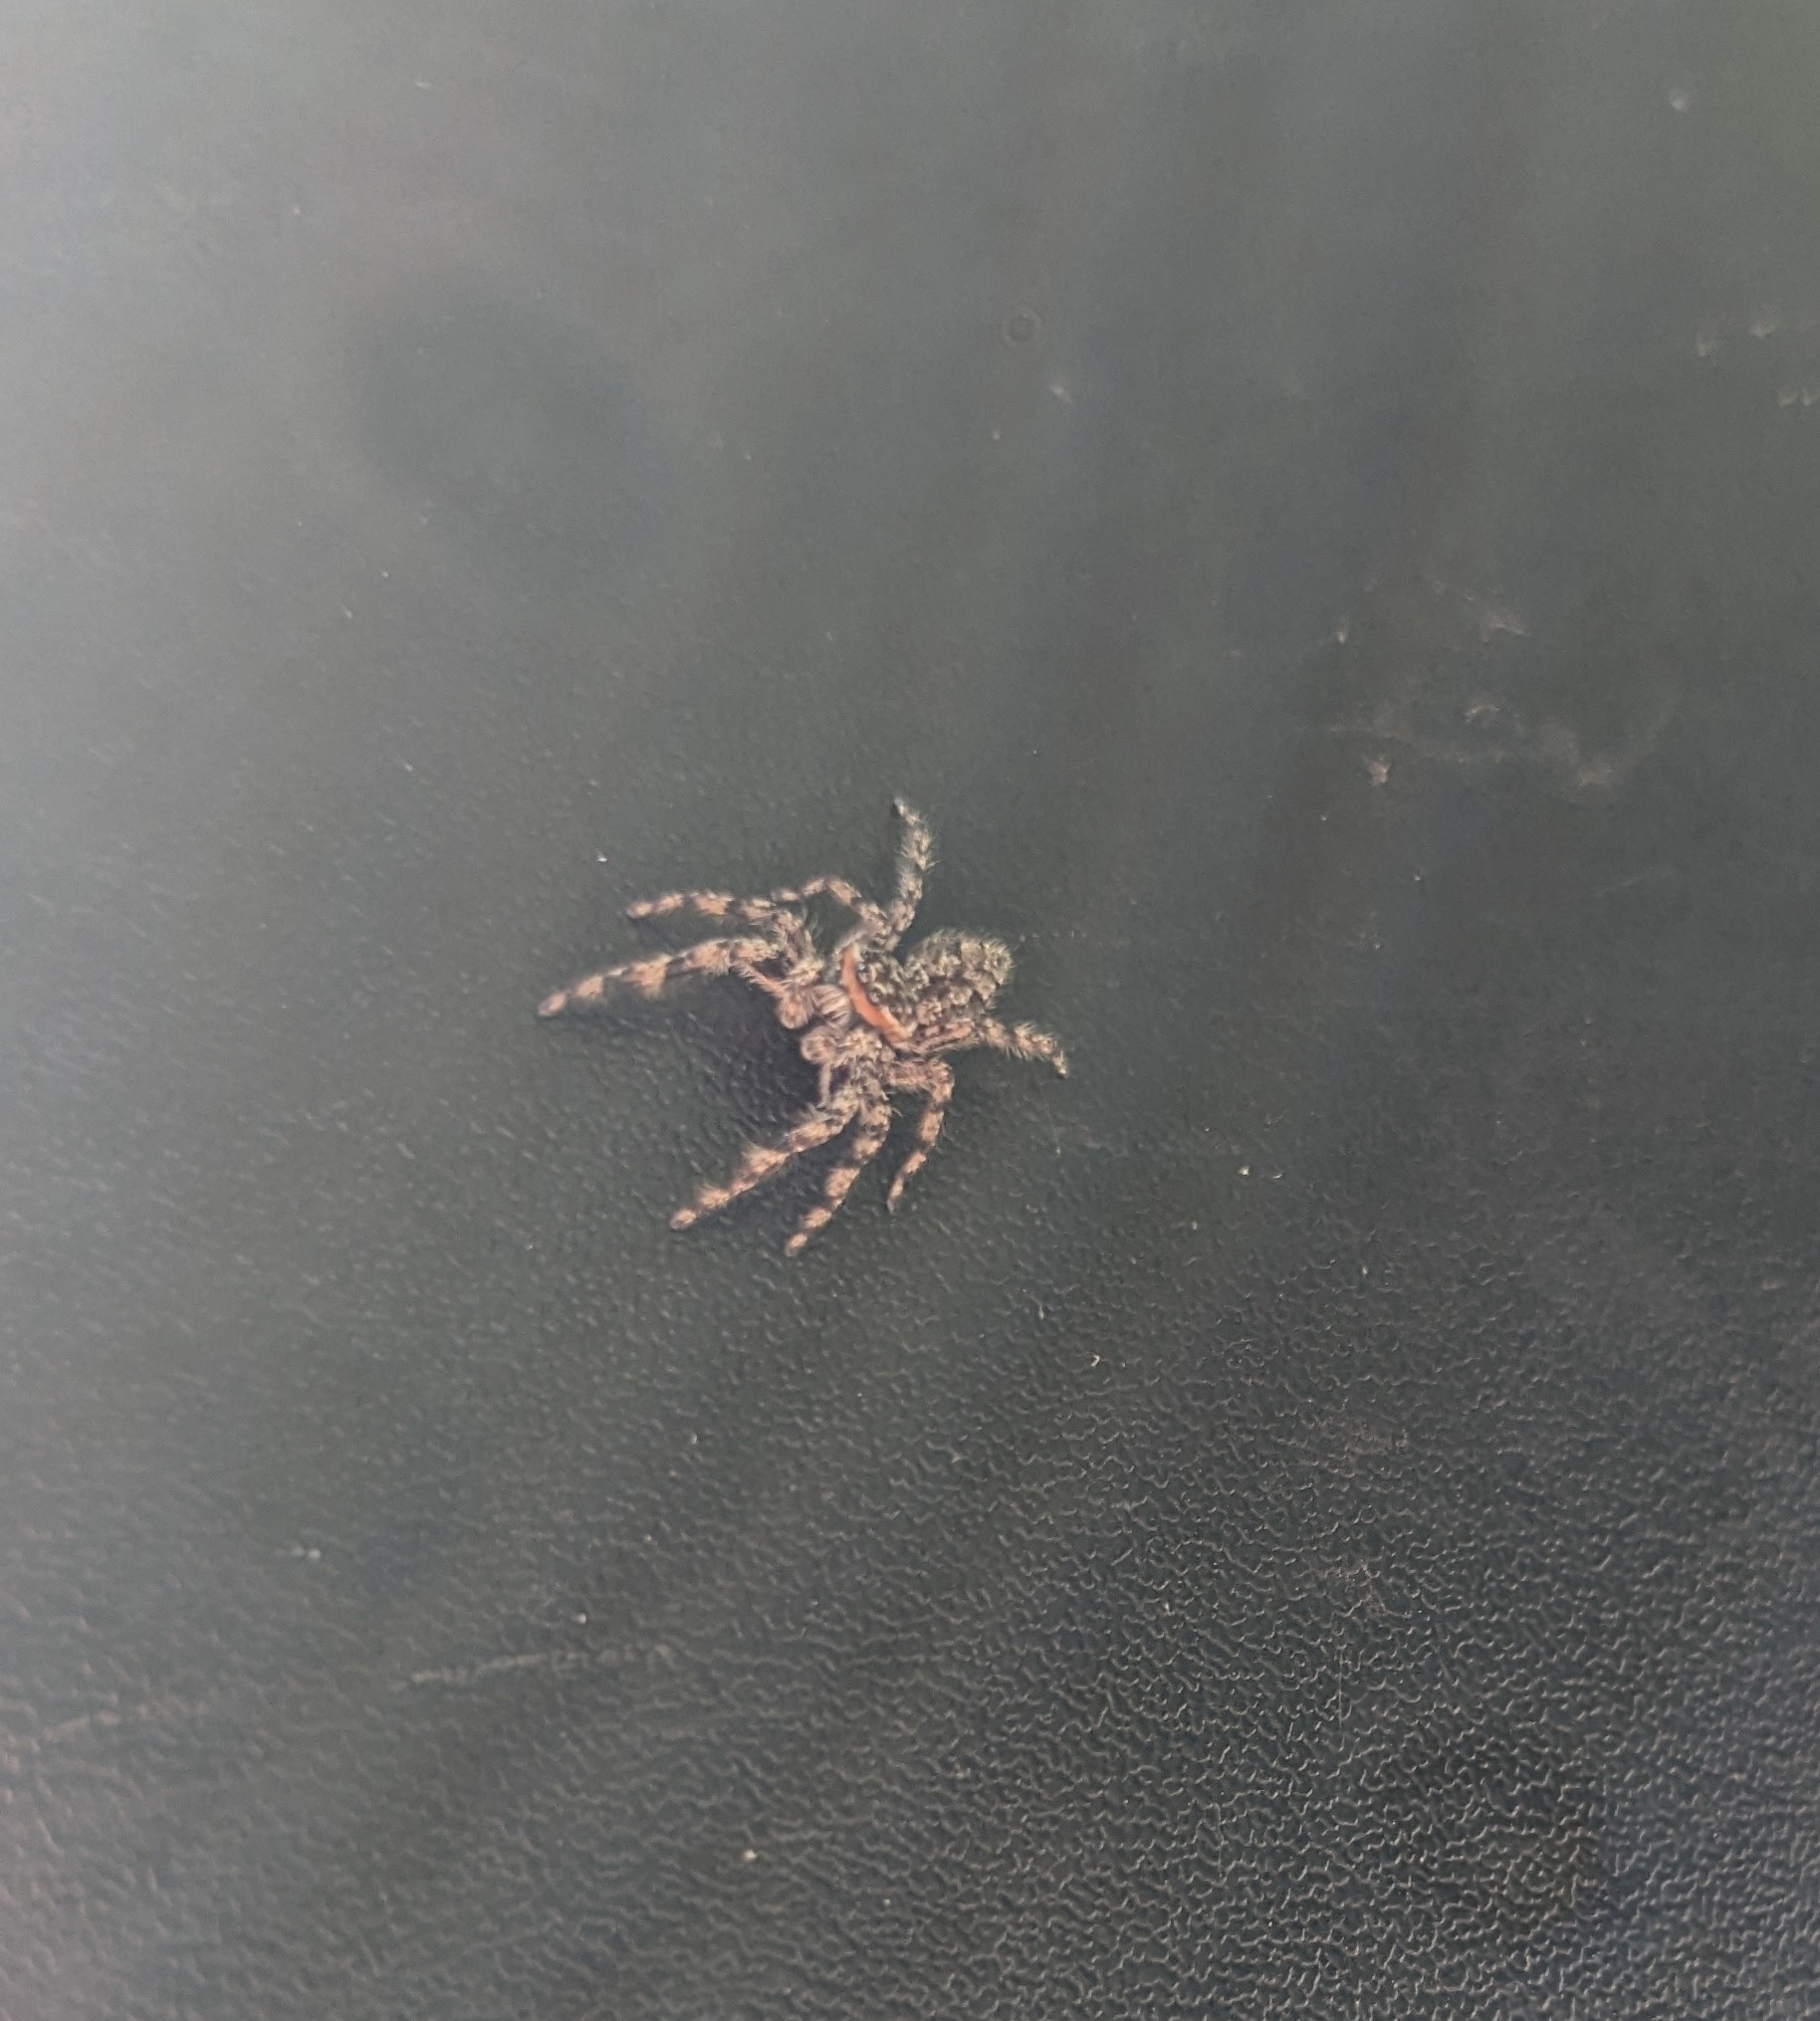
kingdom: Animalia
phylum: Arthropoda
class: Arachnida
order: Araneae
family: Salticidae
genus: Platycryptus
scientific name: Platycryptus undatus
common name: Tan jumping spider
